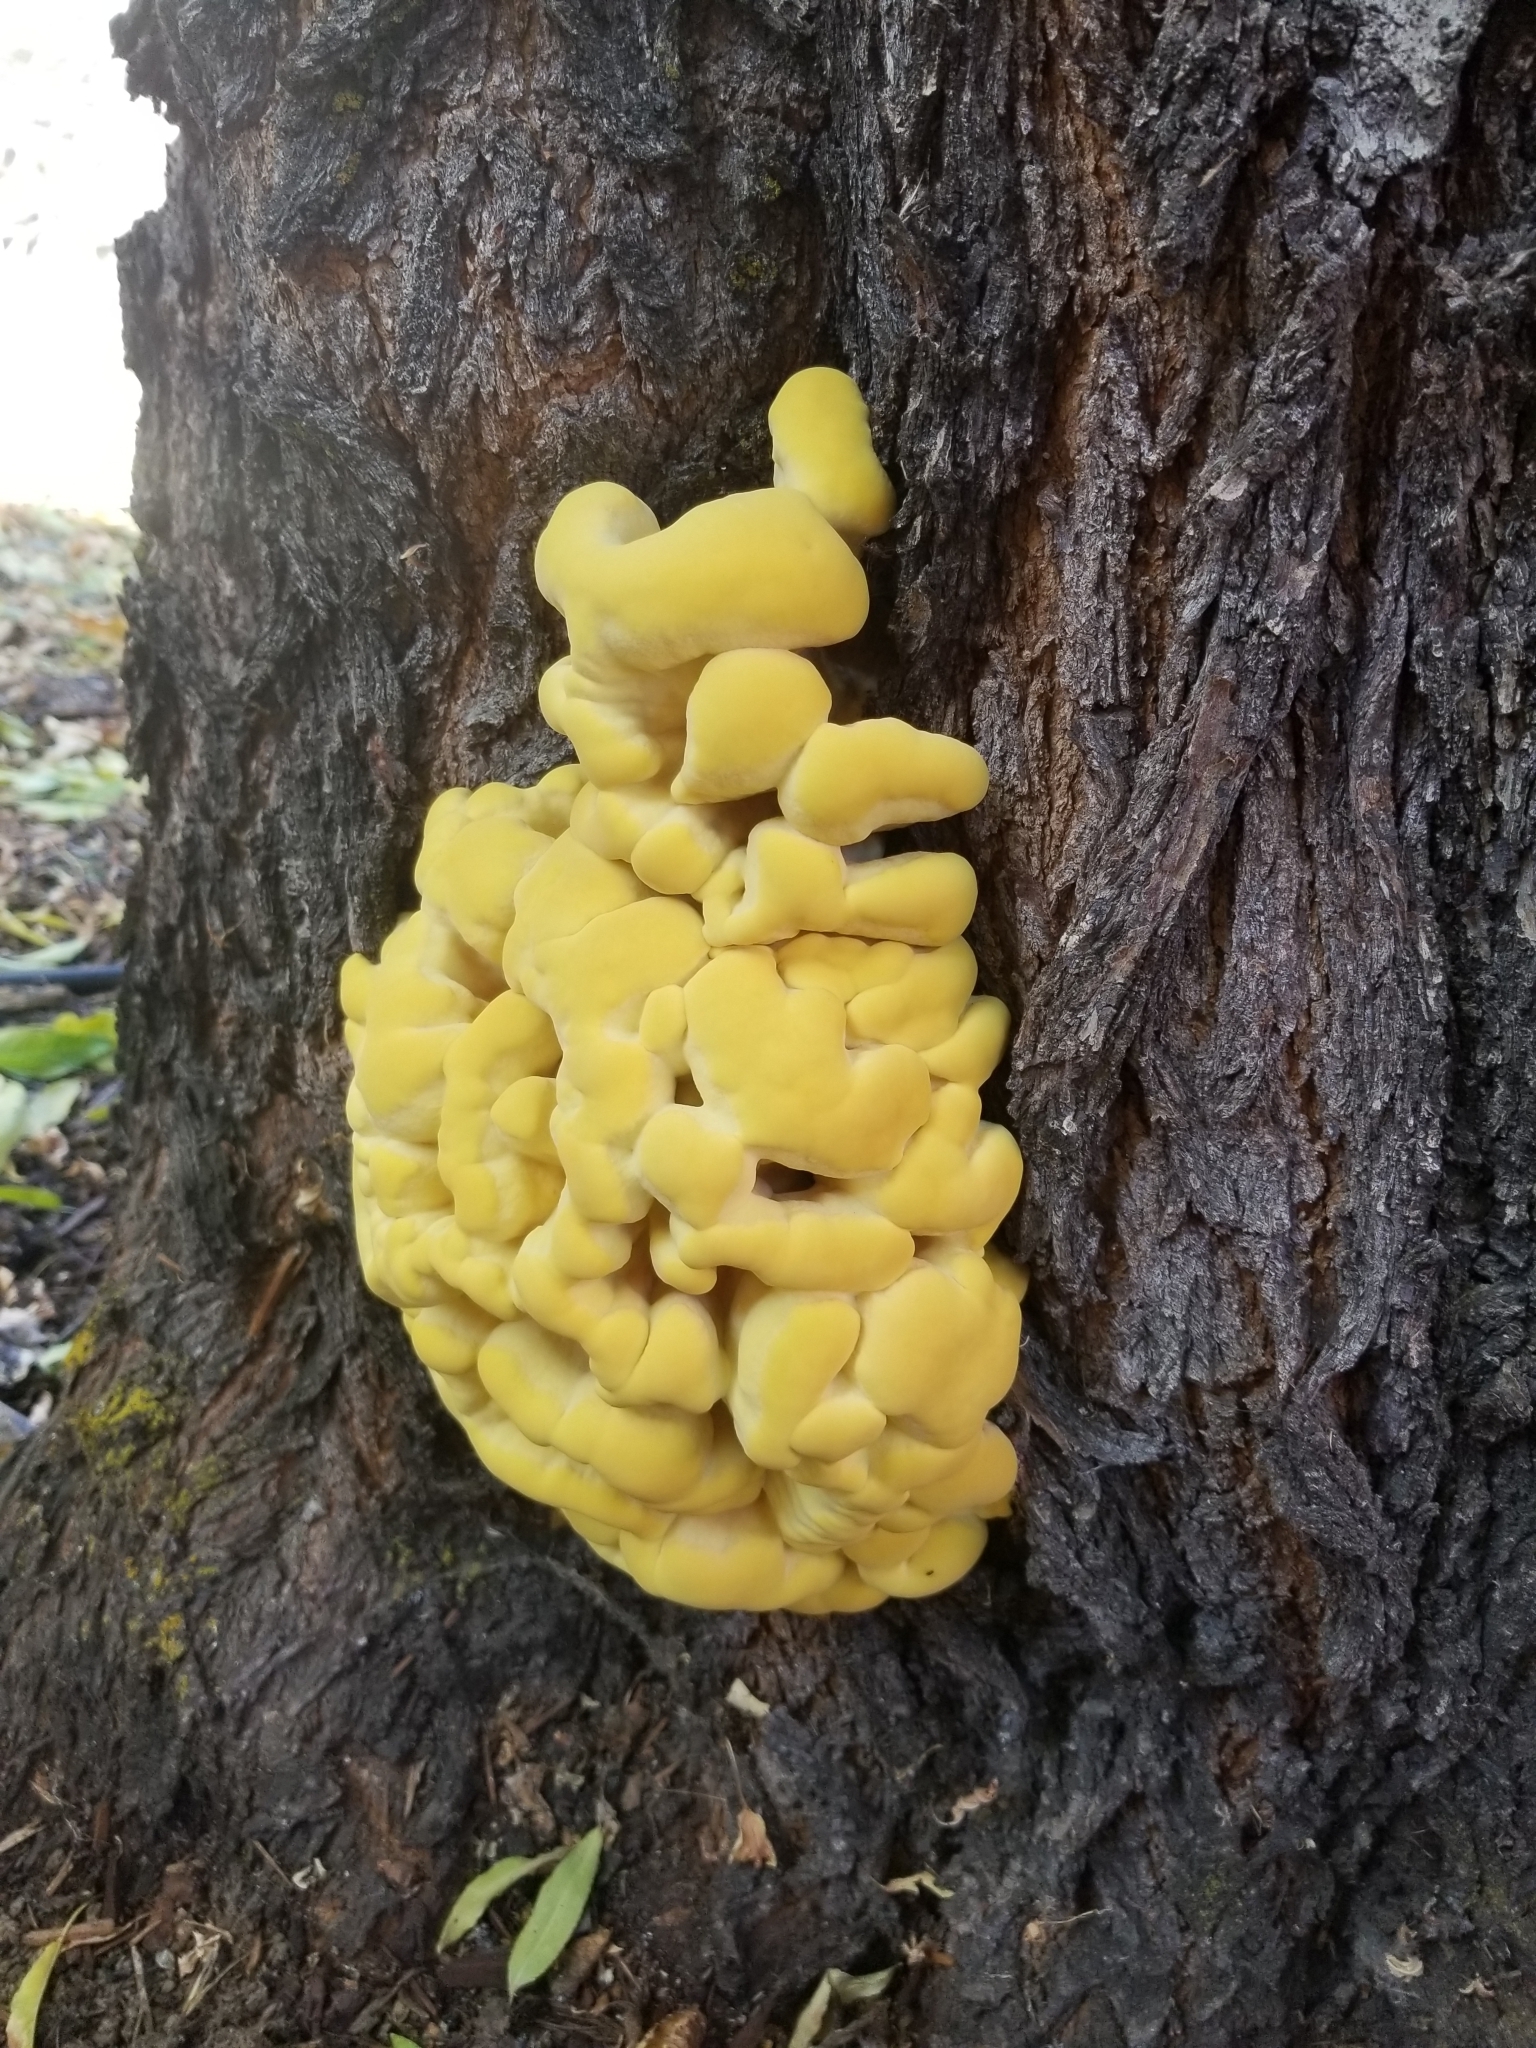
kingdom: Fungi
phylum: Basidiomycota
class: Agaricomycetes
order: Polyporales
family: Laetiporaceae
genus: Laetiporus
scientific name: Laetiporus gilbertsonii
